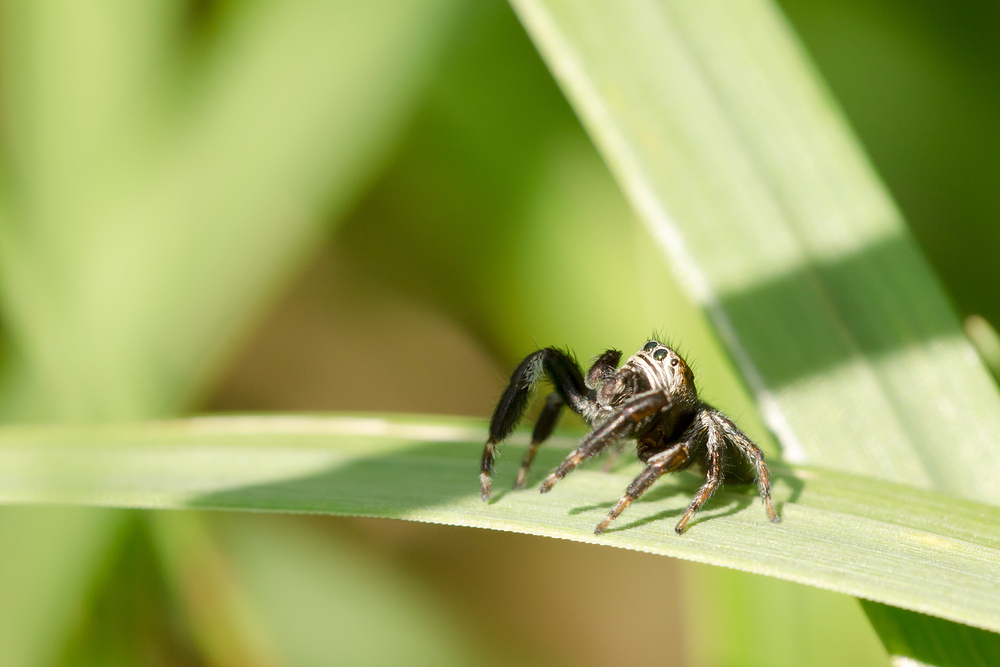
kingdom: Animalia
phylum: Arthropoda
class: Arachnida
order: Araneae
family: Salticidae
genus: Evarcha
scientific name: Evarcha arcuata
